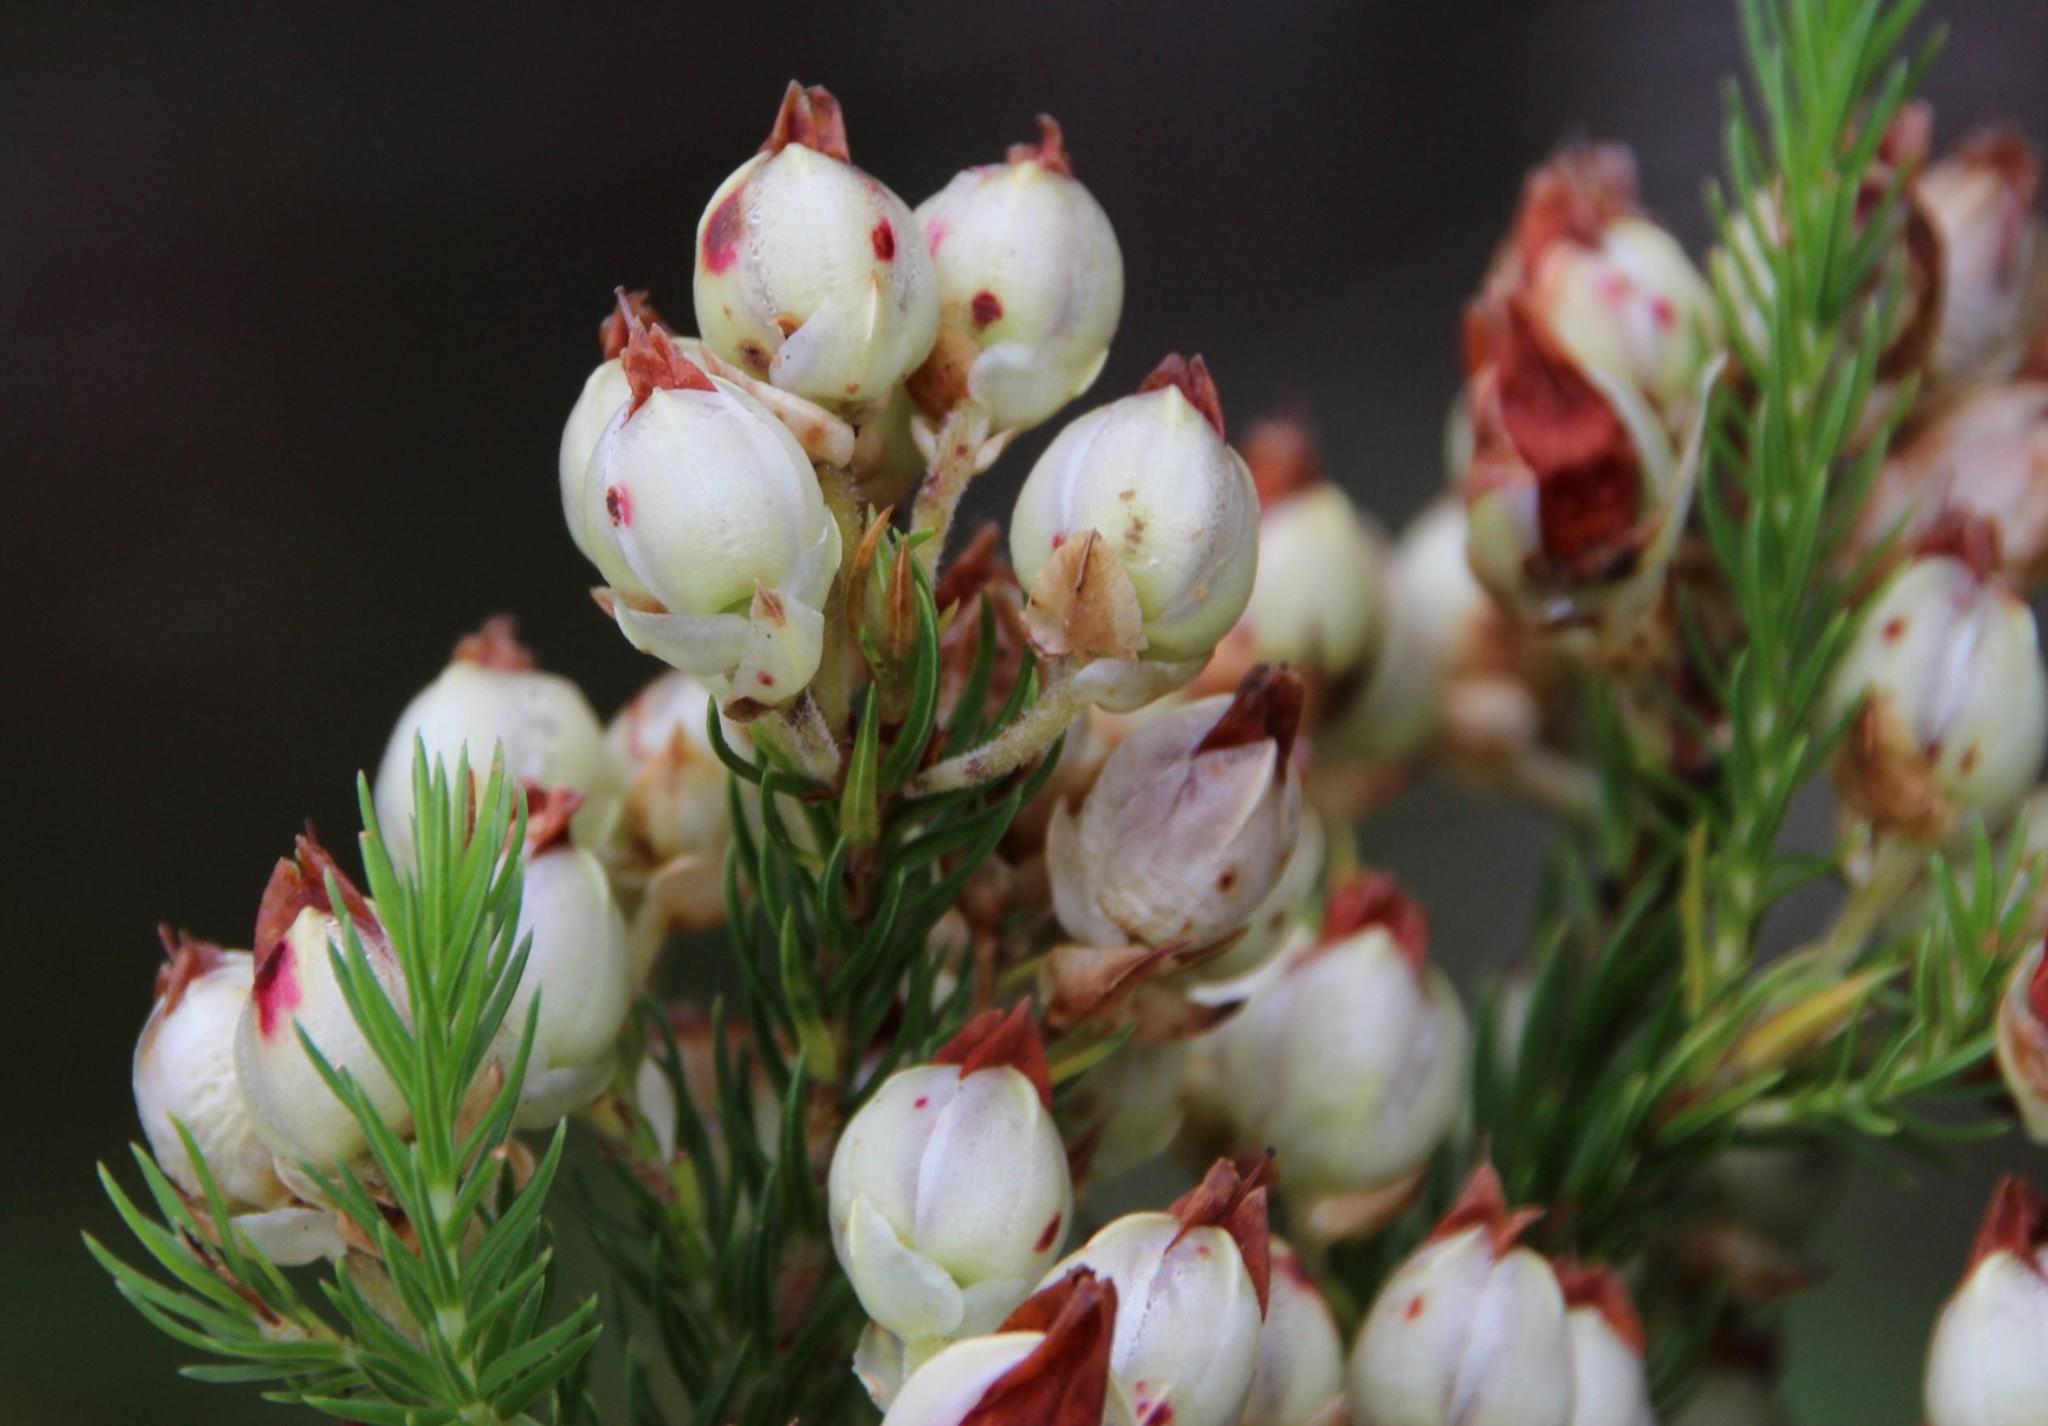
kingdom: Plantae
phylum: Tracheophyta
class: Magnoliopsida
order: Ericales
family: Ericaceae
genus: Erica
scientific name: Erica papyracea
